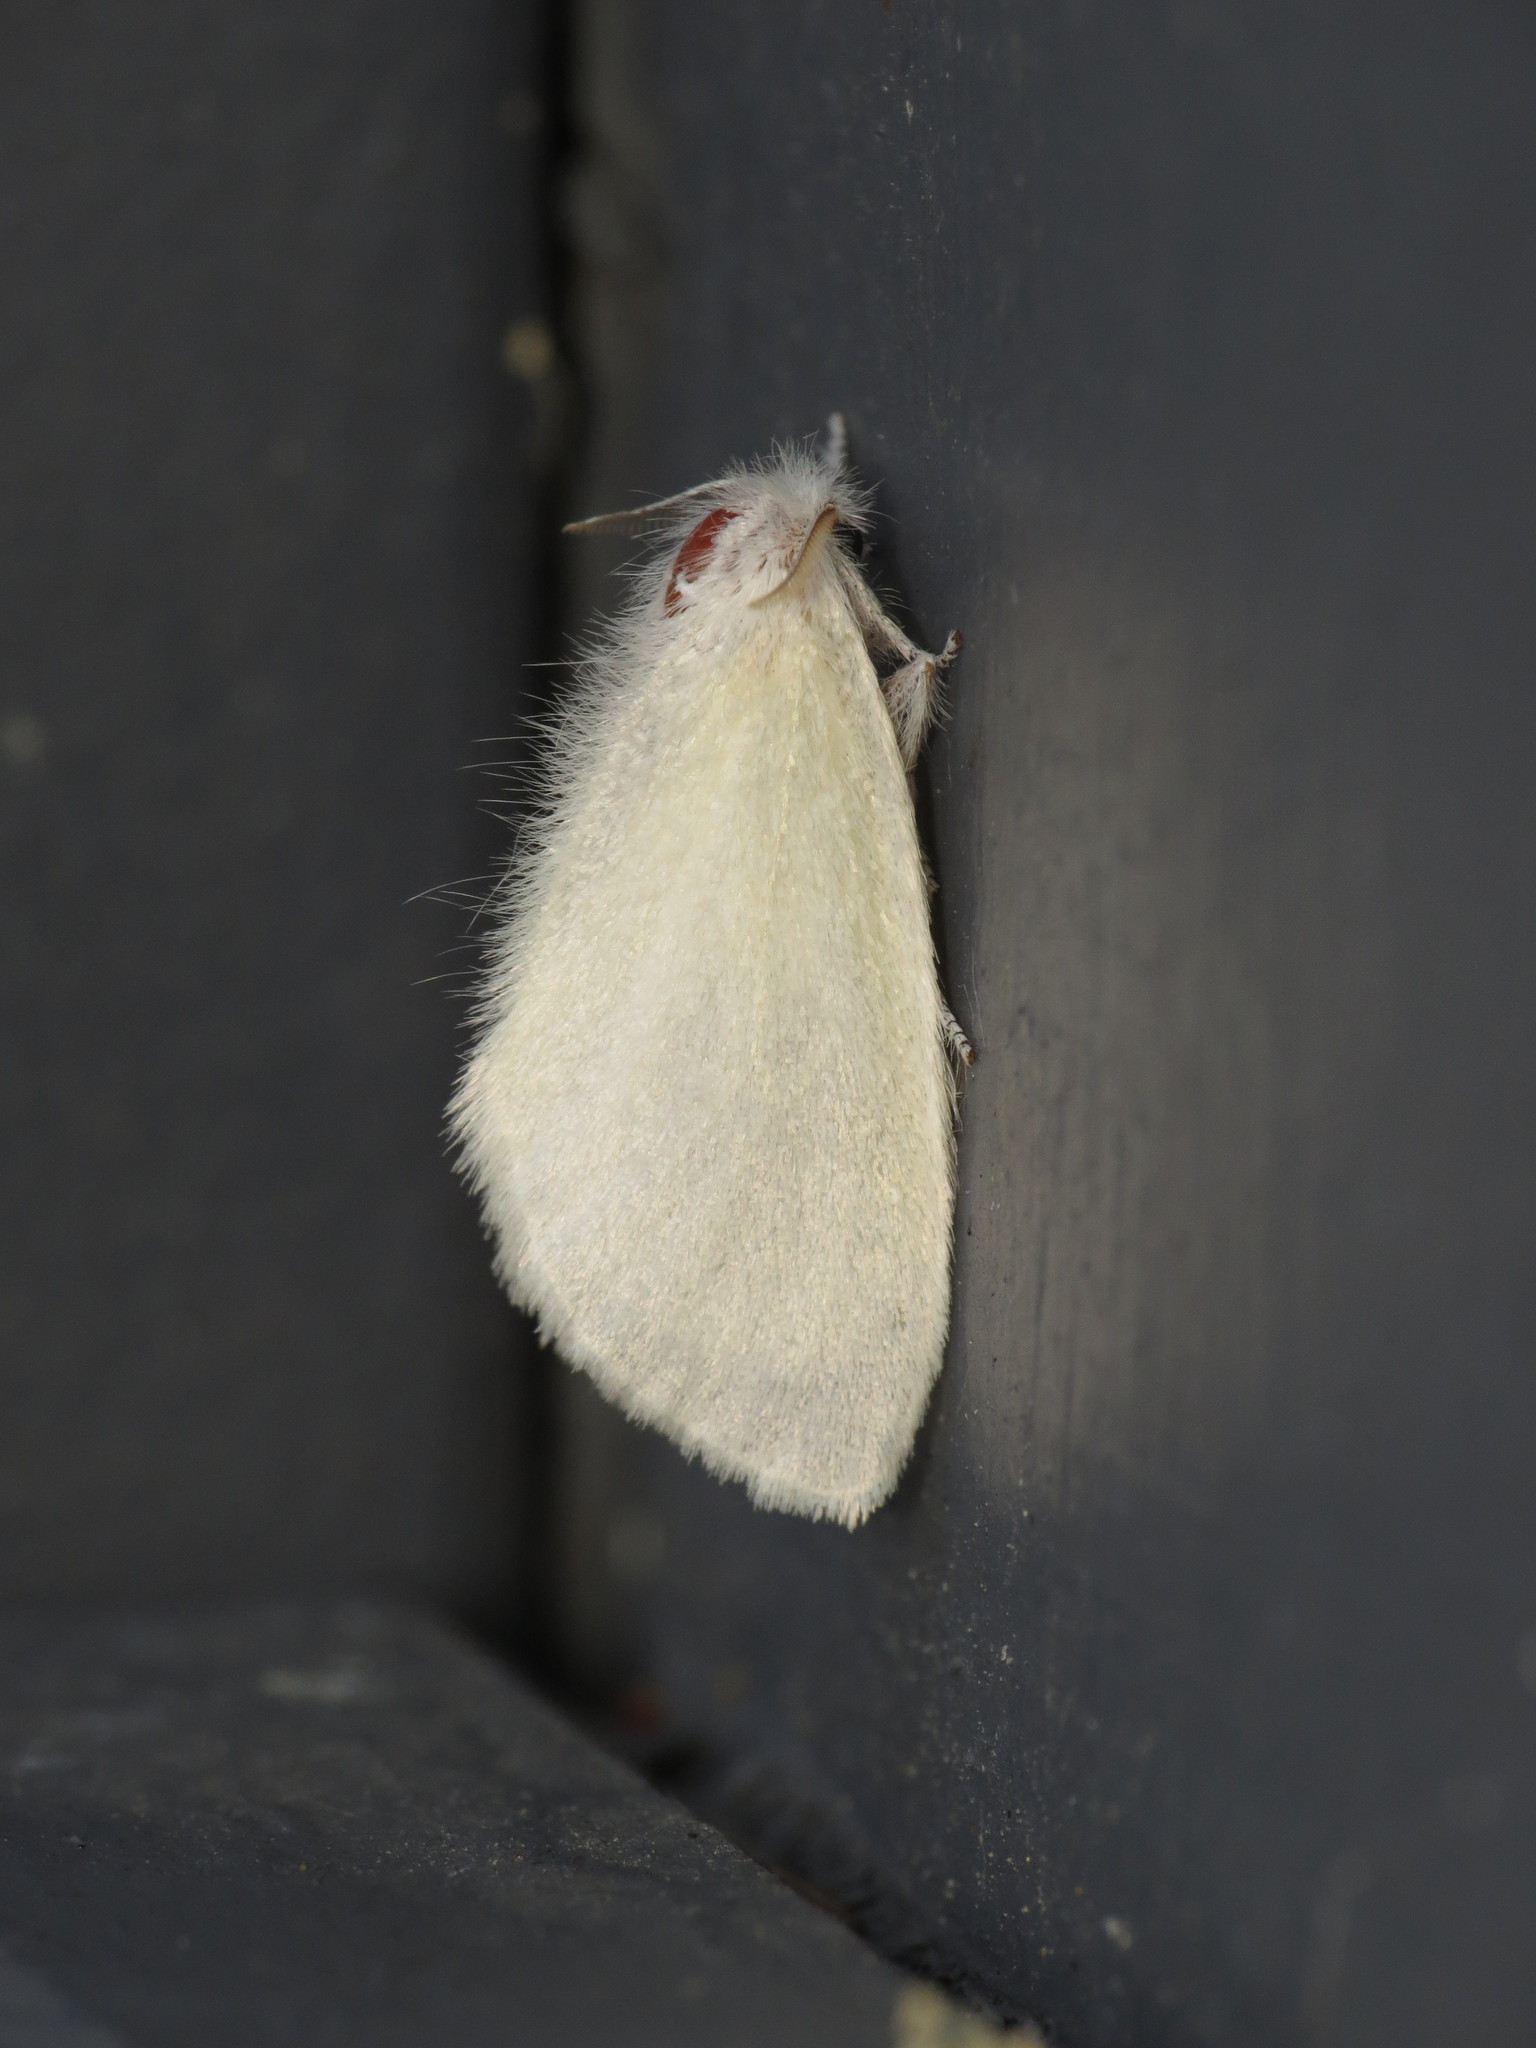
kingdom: Animalia
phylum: Arthropoda
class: Insecta
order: Lepidoptera
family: Erebidae
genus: Acyphas
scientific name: Acyphas chionitis
